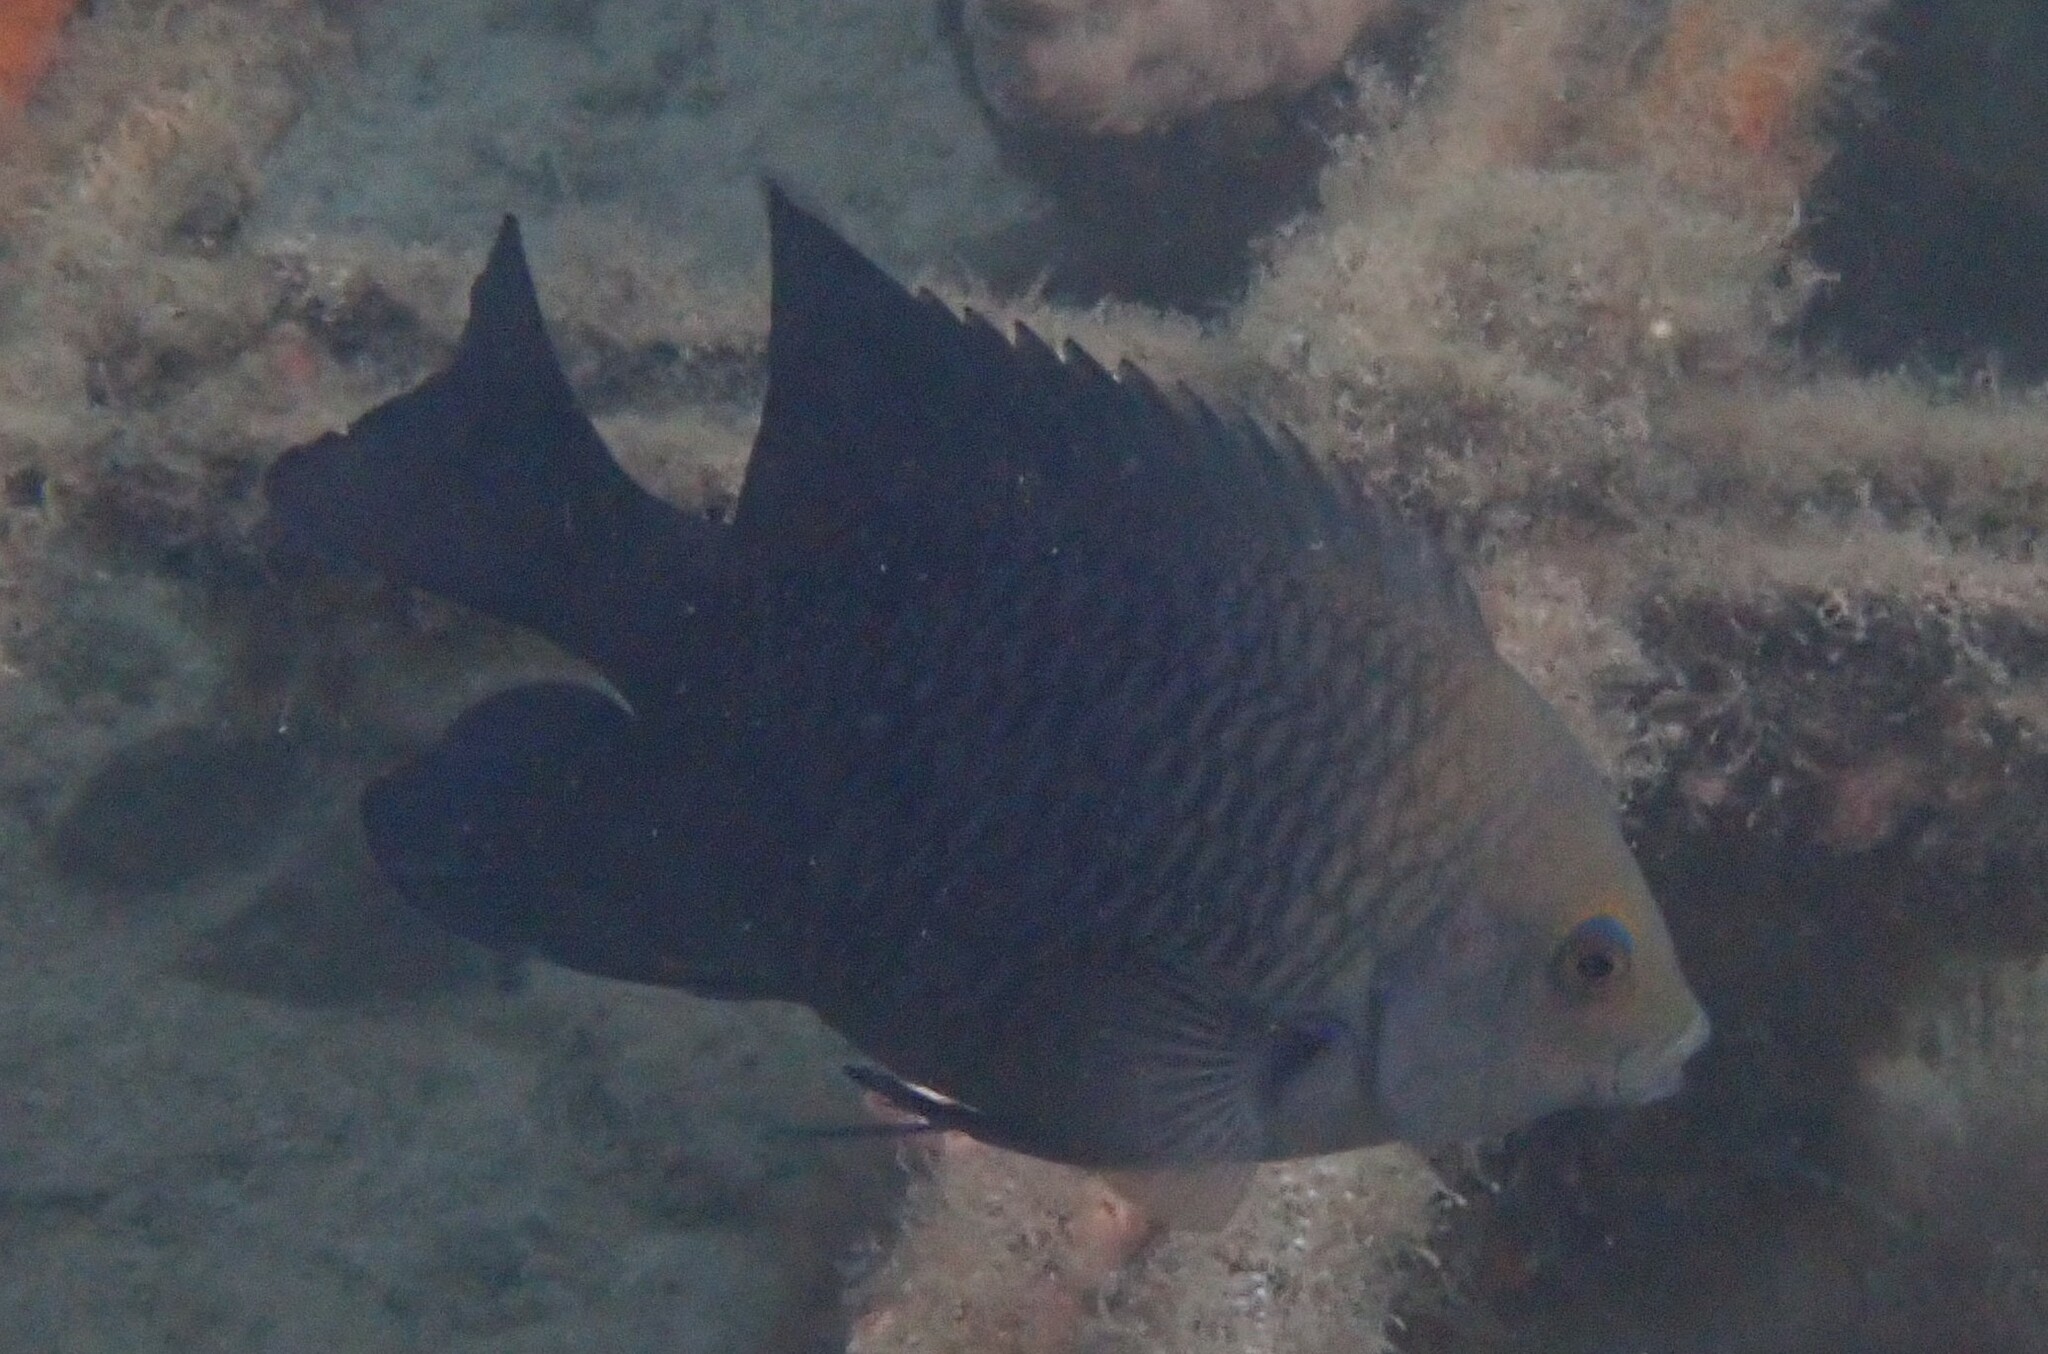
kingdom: Animalia
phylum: Chordata
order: Perciformes
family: Pomacentridae
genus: Hemiglyphidodon
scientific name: Hemiglyphidodon plagiometopon
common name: Lagoon damsel
